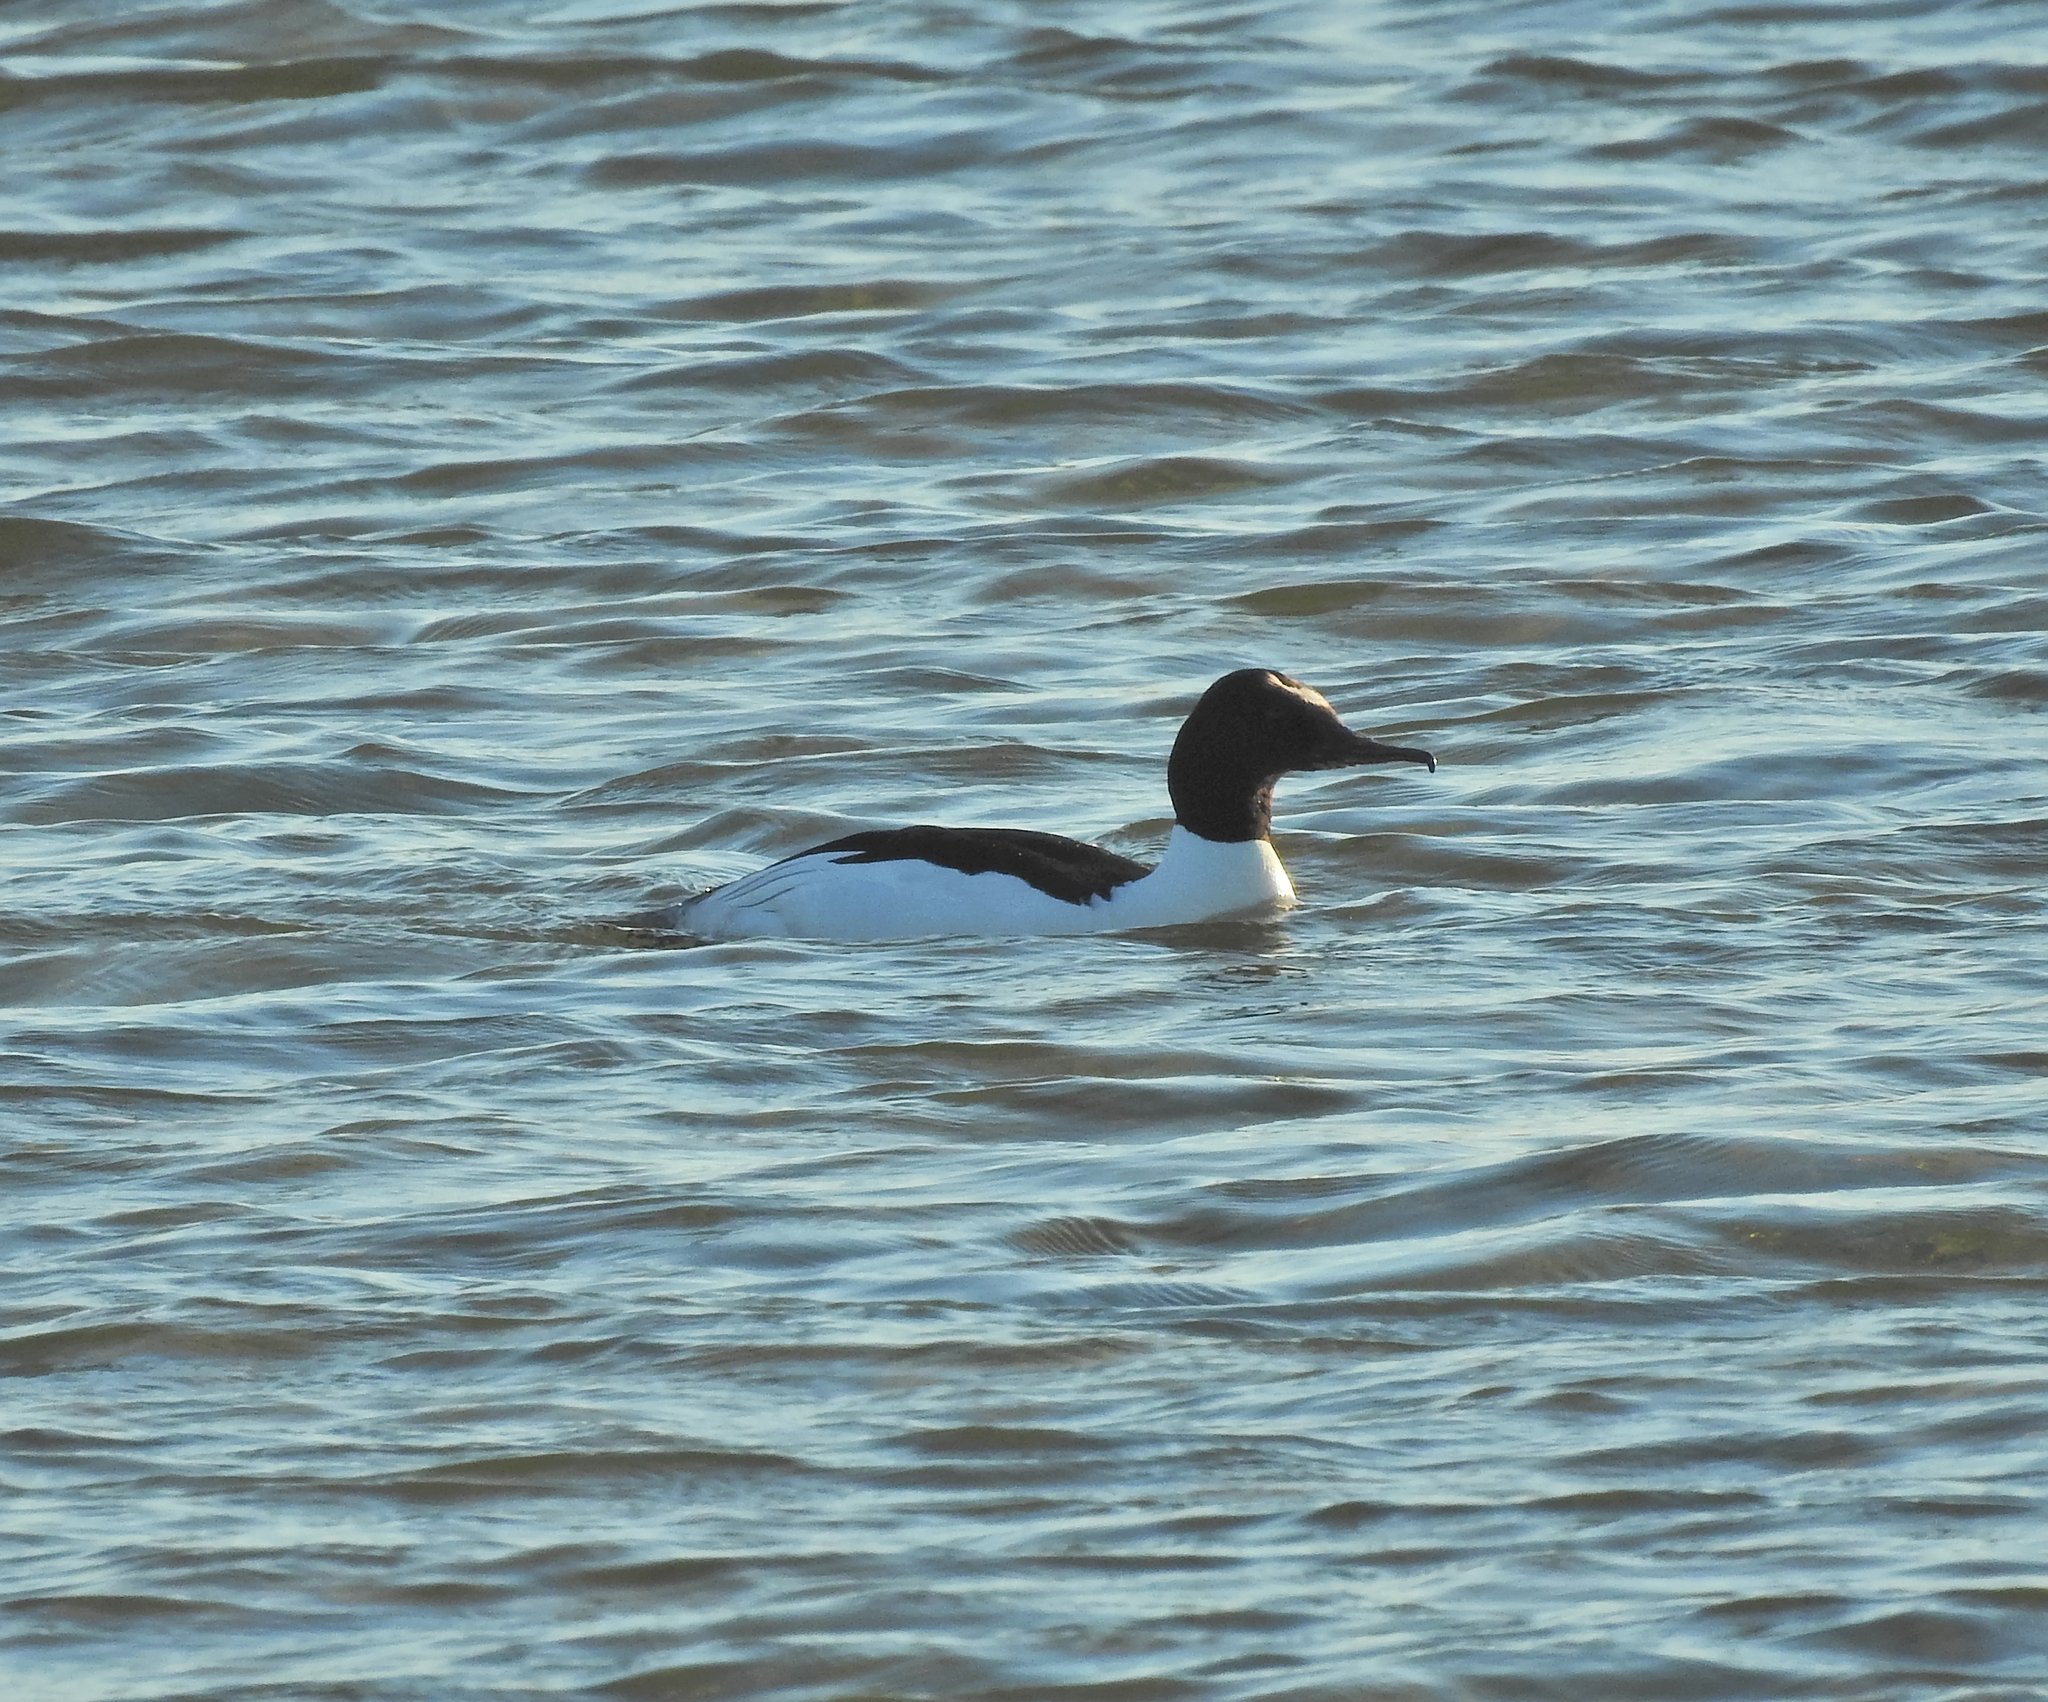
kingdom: Animalia
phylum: Chordata
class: Aves
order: Anseriformes
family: Anatidae
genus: Mergus
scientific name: Mergus merganser
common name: Common merganser
